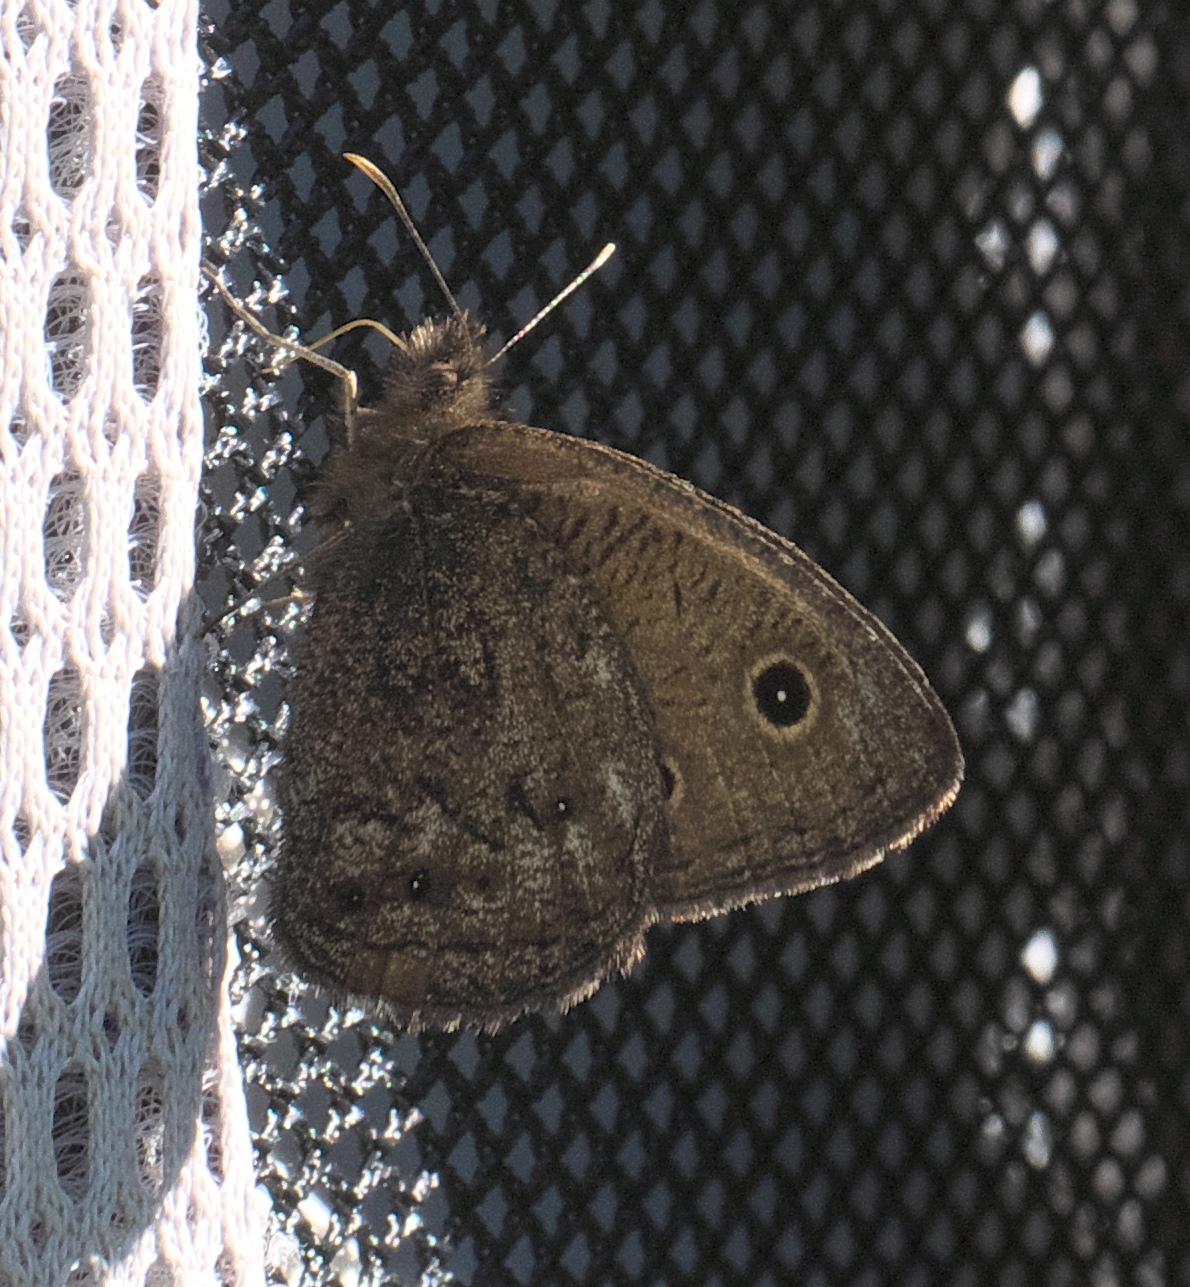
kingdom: Animalia
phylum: Arthropoda
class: Insecta
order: Lepidoptera
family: Nymphalidae
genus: Cercyonis
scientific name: Cercyonis oetus
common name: Small wood-nymph
